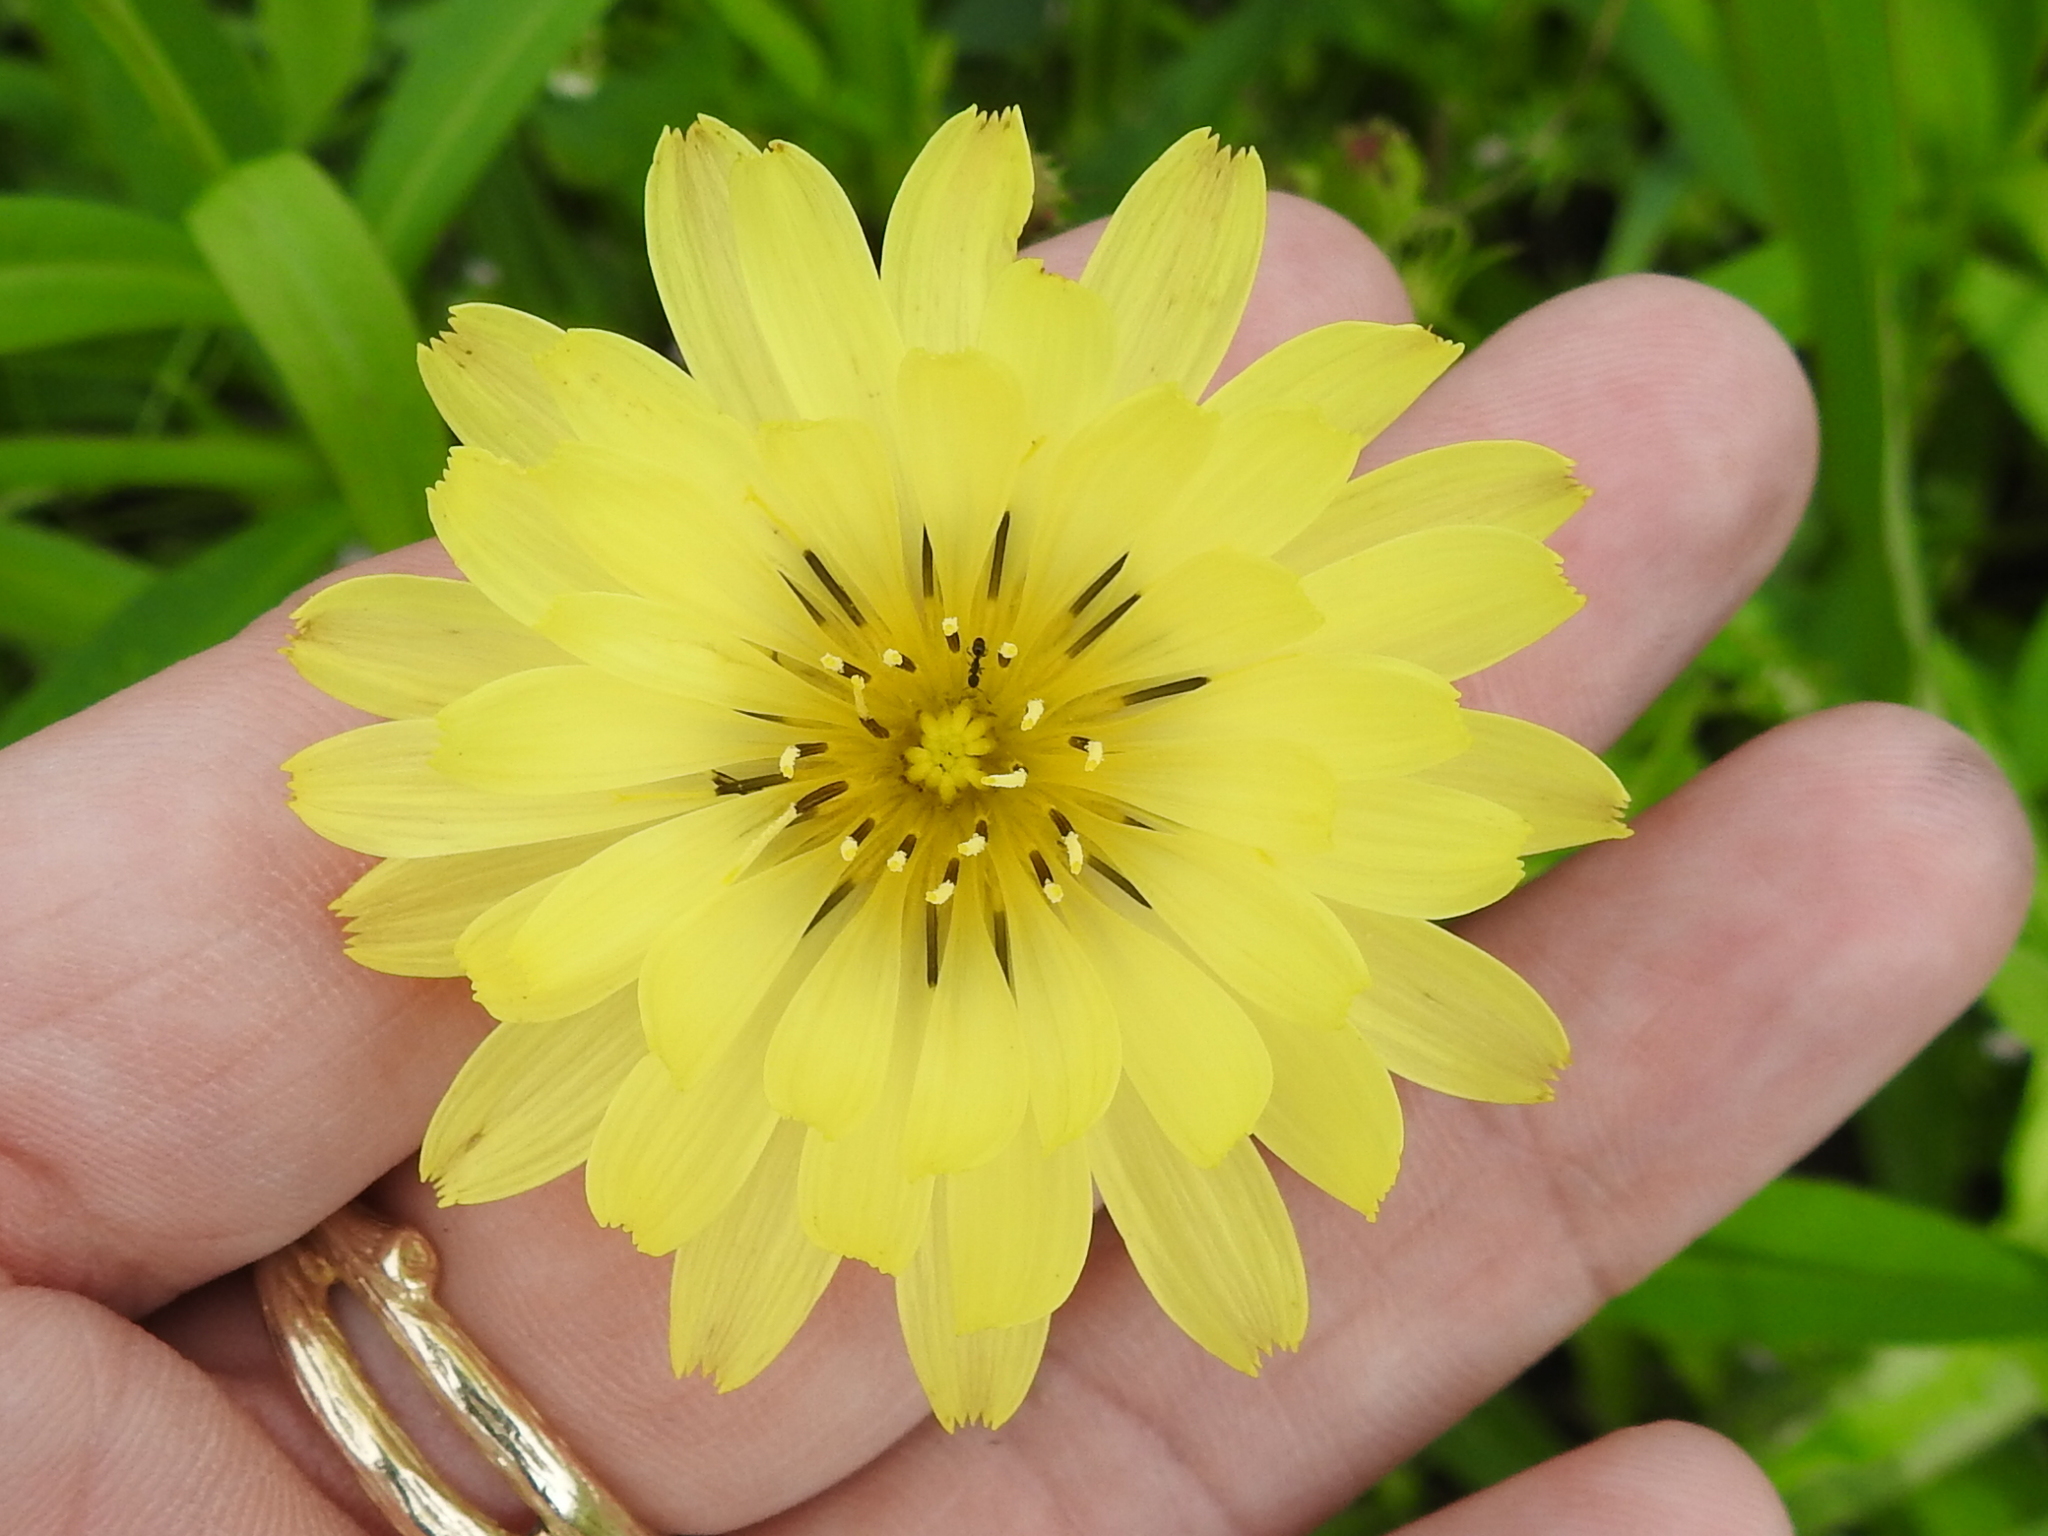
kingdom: Plantae
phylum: Tracheophyta
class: Magnoliopsida
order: Asterales
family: Asteraceae
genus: Pyrrhopappus
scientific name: Pyrrhopappus pauciflorus
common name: Texas false dandelion
